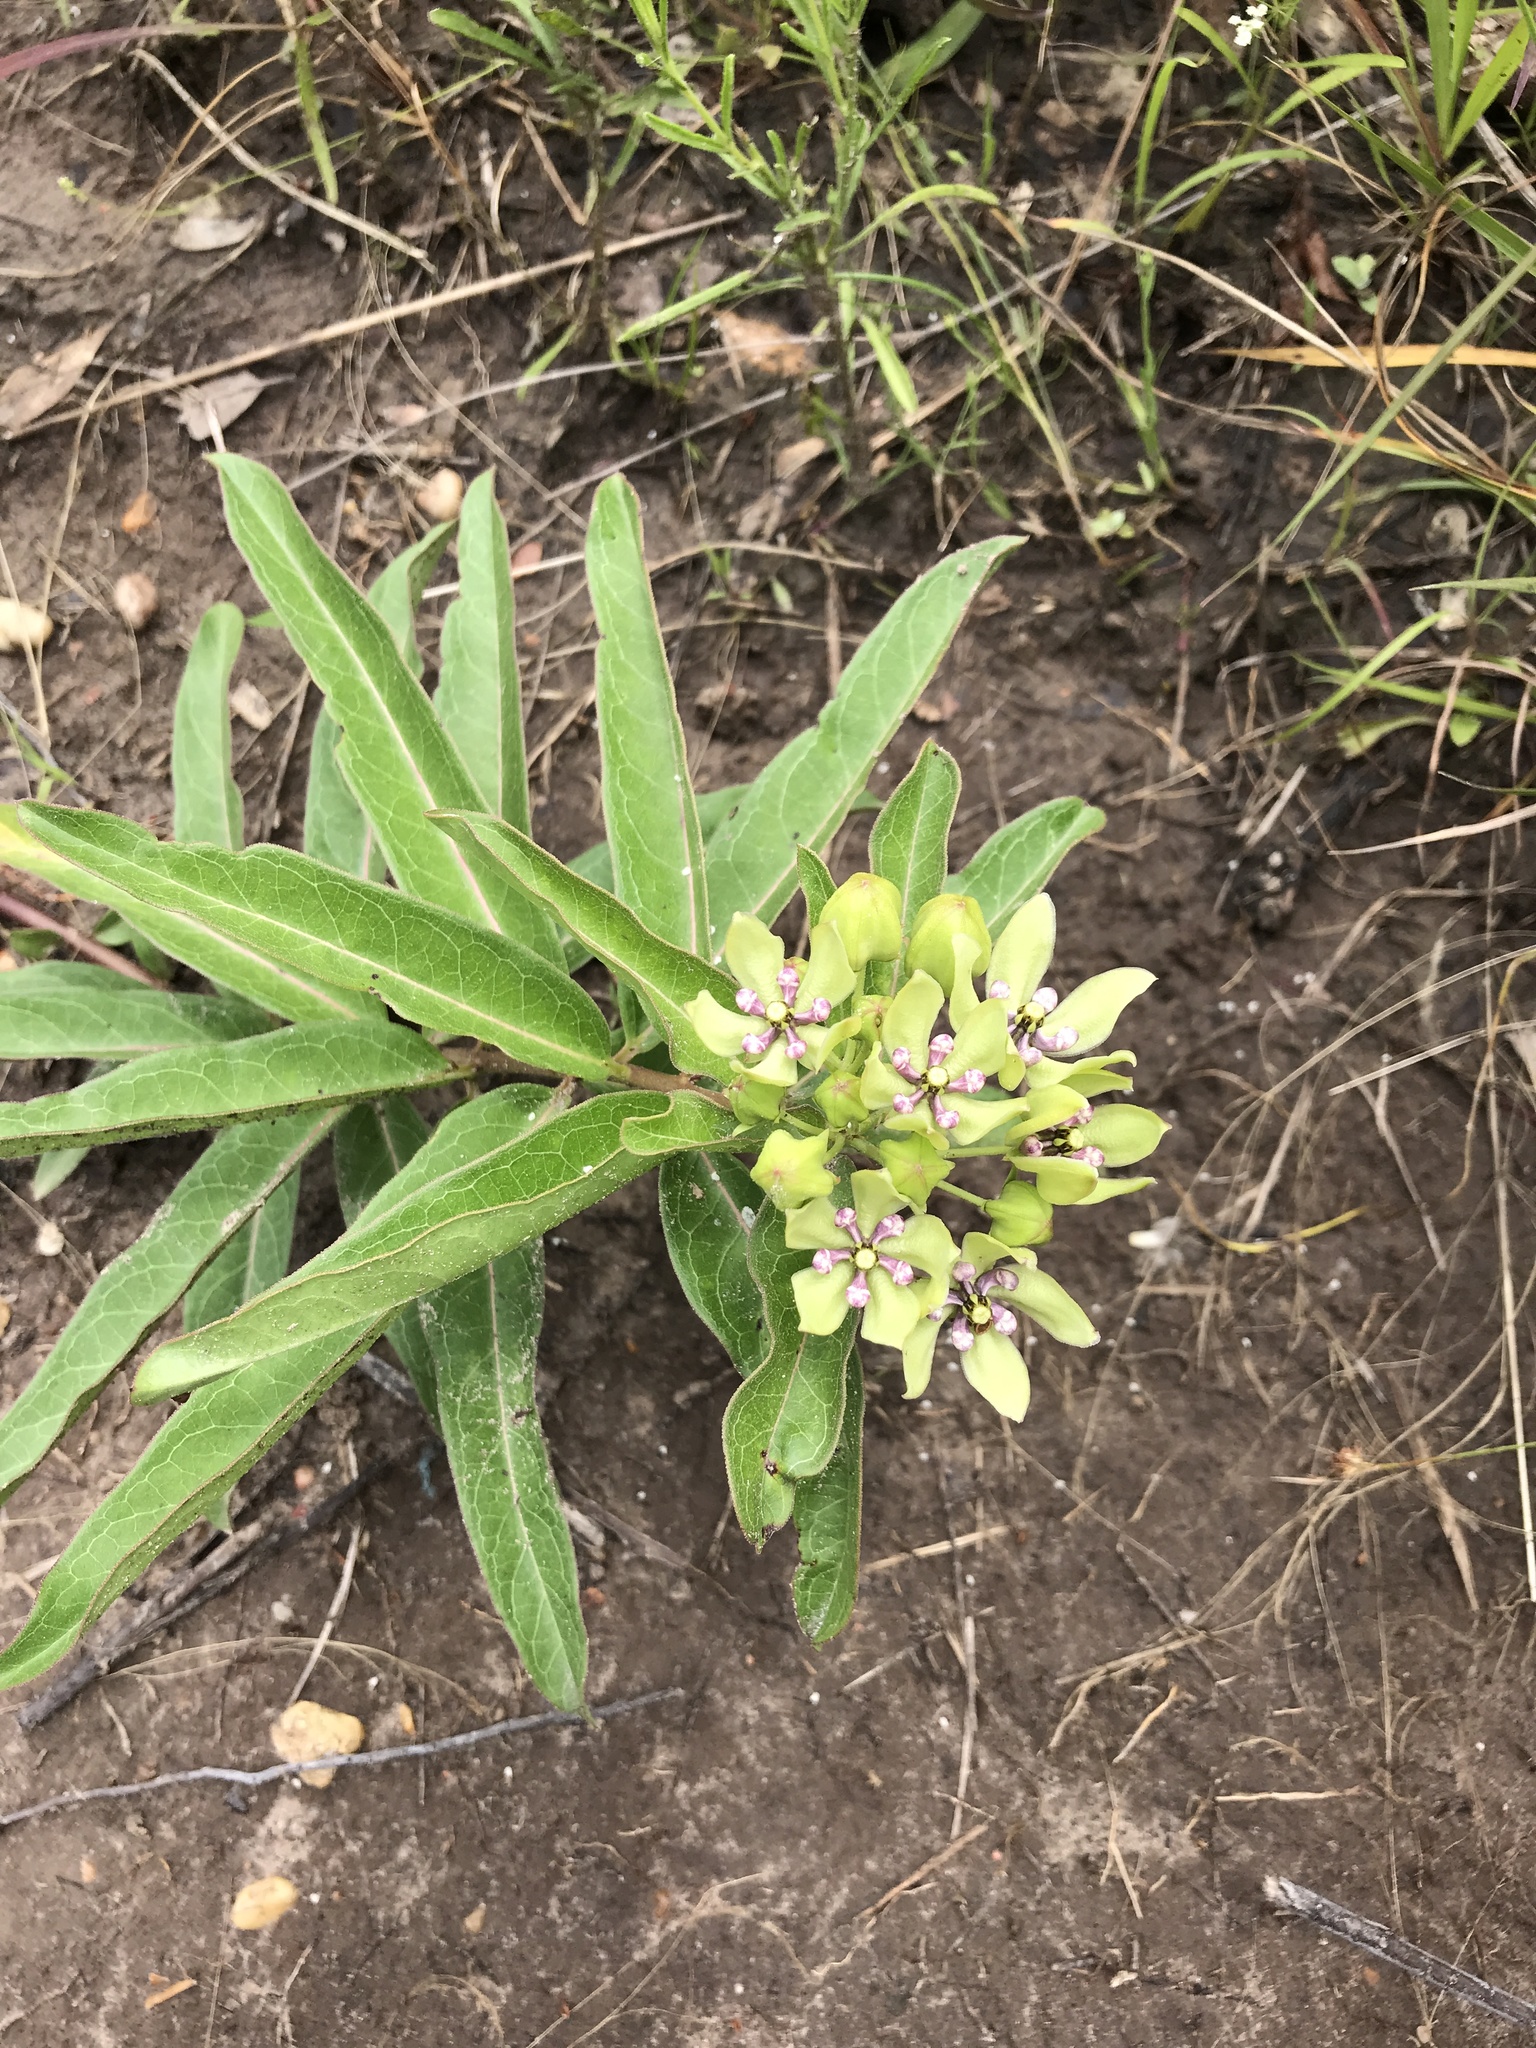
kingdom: Plantae
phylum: Tracheophyta
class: Magnoliopsida
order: Gentianales
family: Apocynaceae
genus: Asclepias
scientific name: Asclepias viridis
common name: Antelope-horns
